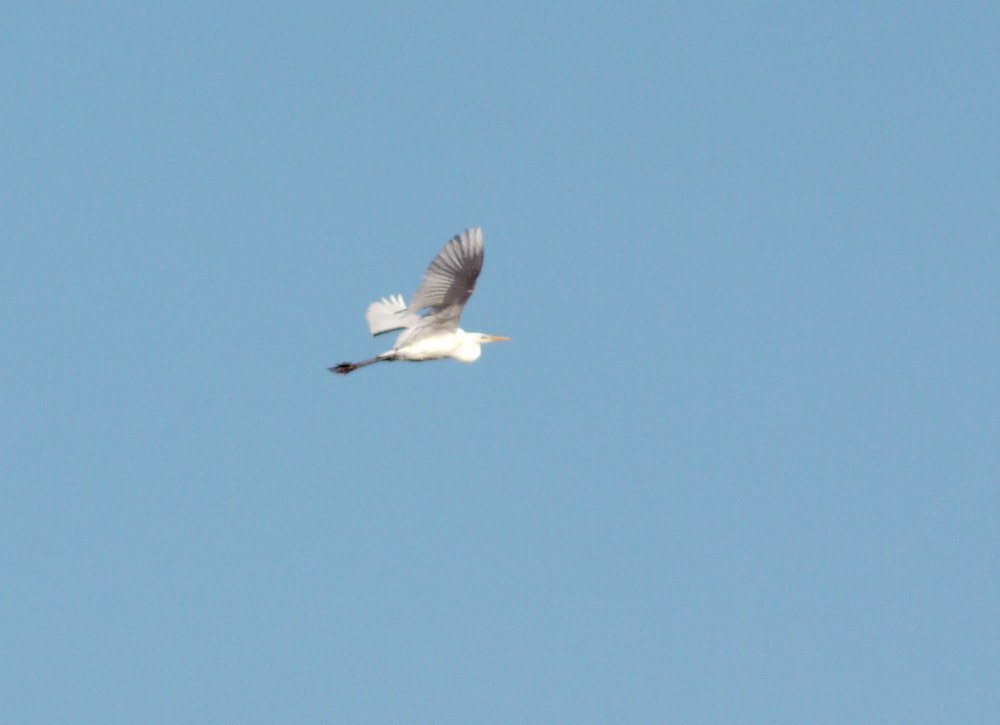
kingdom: Animalia
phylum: Chordata
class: Aves
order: Pelecaniformes
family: Ardeidae
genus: Ardea
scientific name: Ardea alba
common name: Great egret
